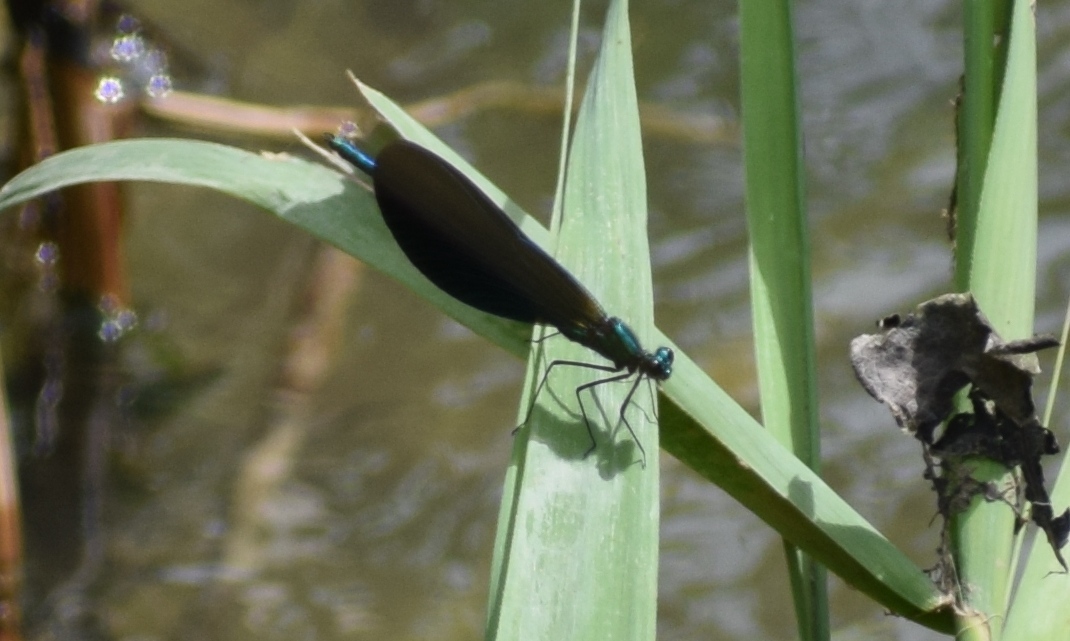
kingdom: Animalia
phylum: Arthropoda
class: Insecta
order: Odonata
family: Calopterygidae
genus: Calopteryx
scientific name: Calopteryx virgo
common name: Beautiful demoiselle
